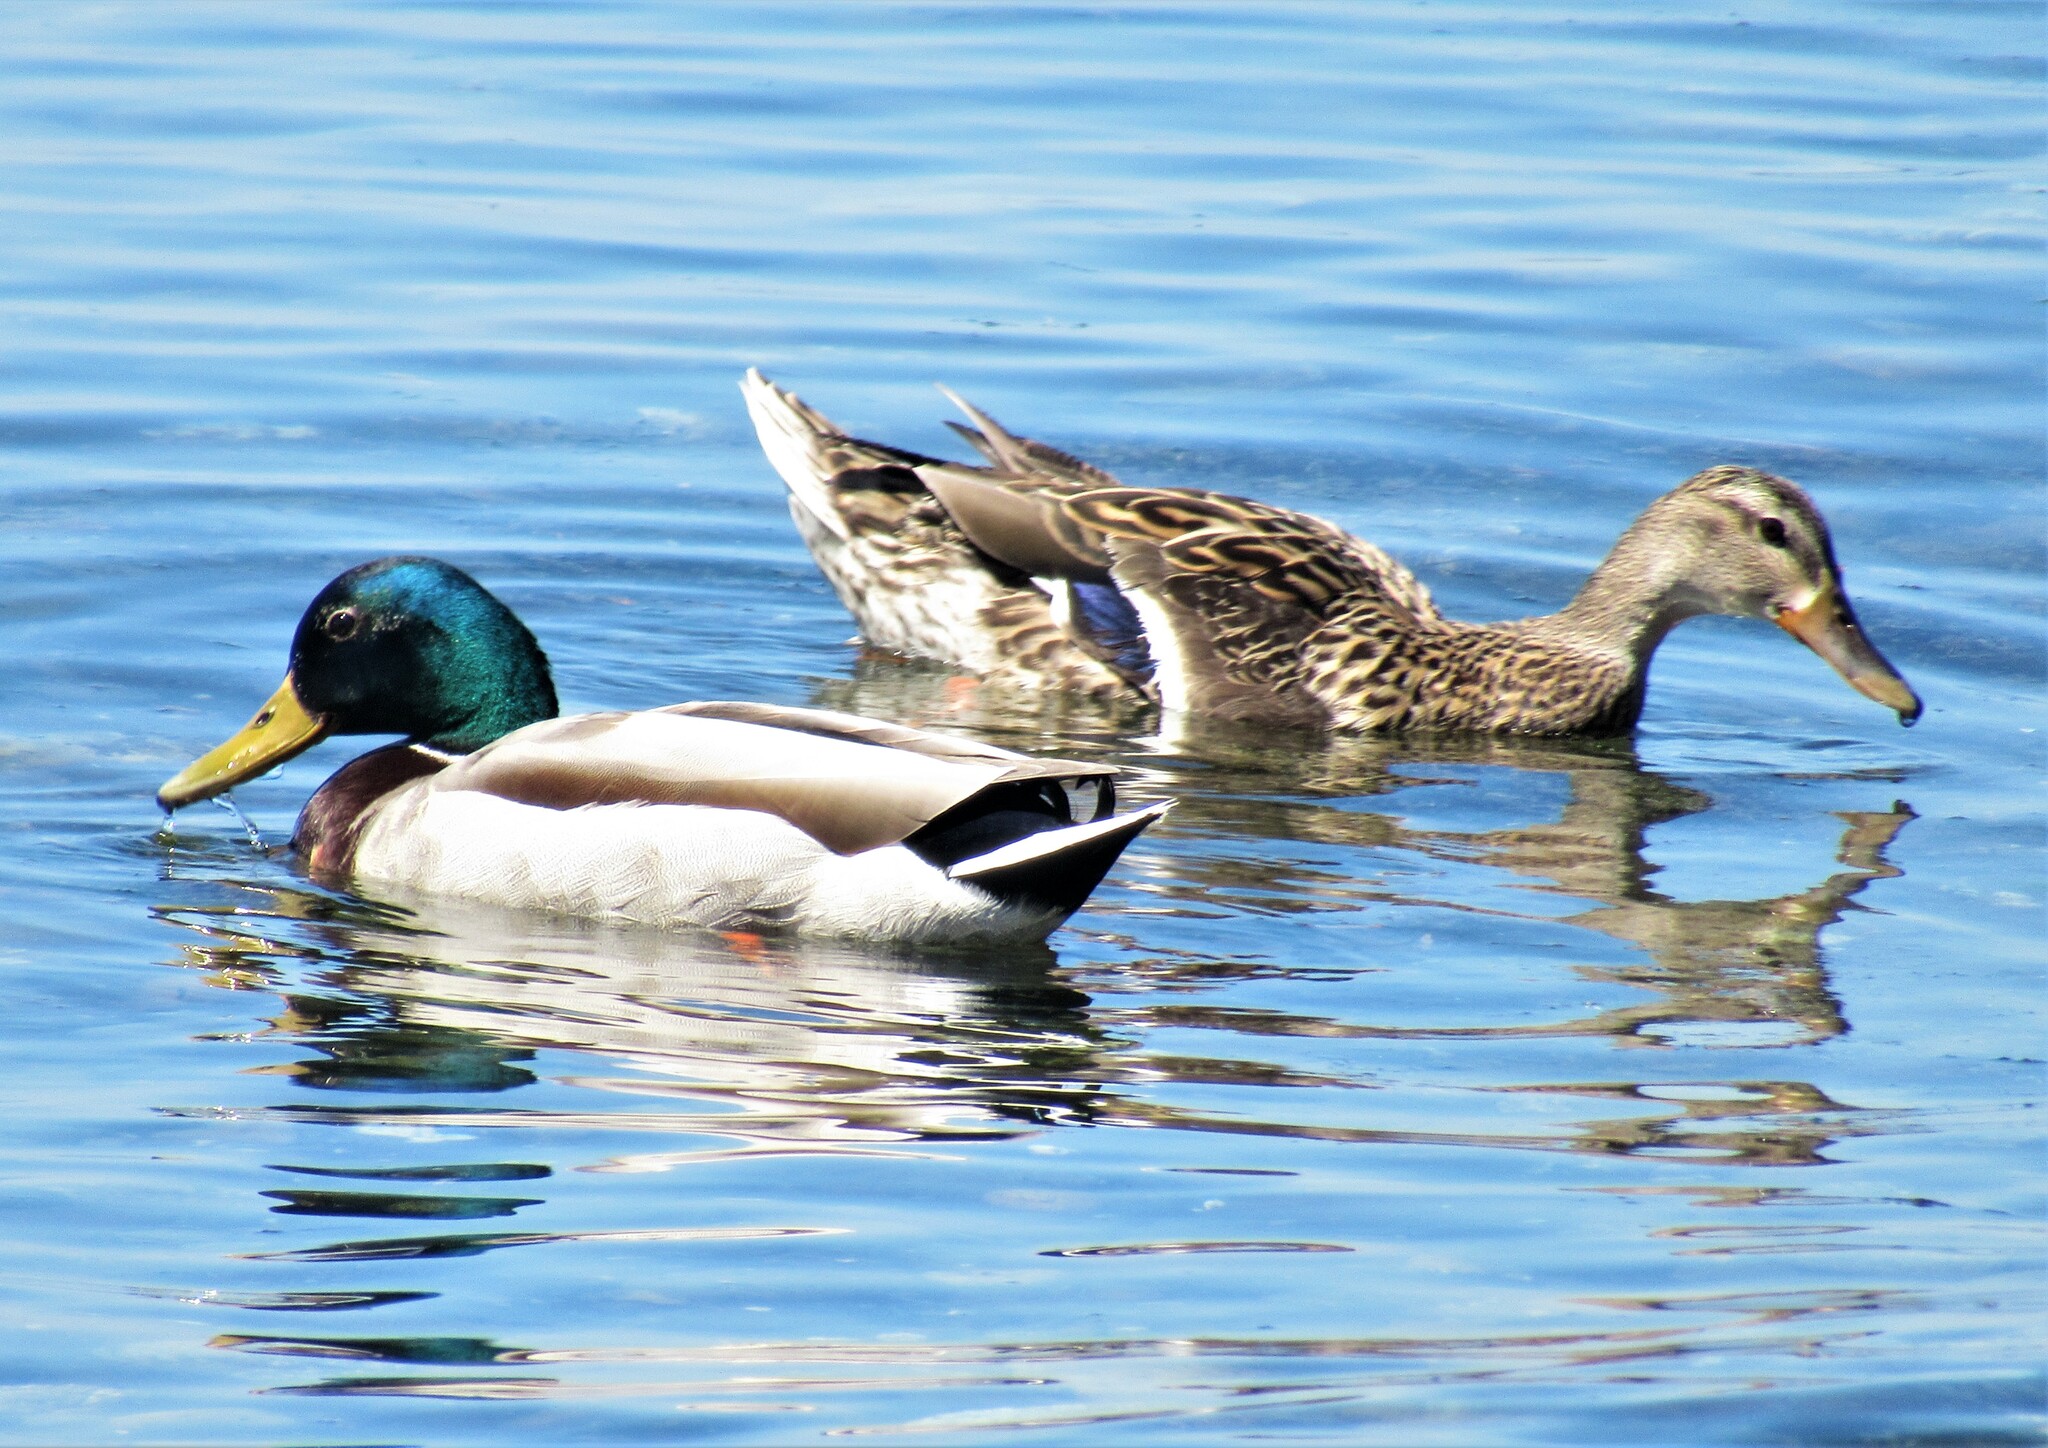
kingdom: Animalia
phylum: Chordata
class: Aves
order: Anseriformes
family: Anatidae
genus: Anas
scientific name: Anas platyrhynchos
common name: Mallard
